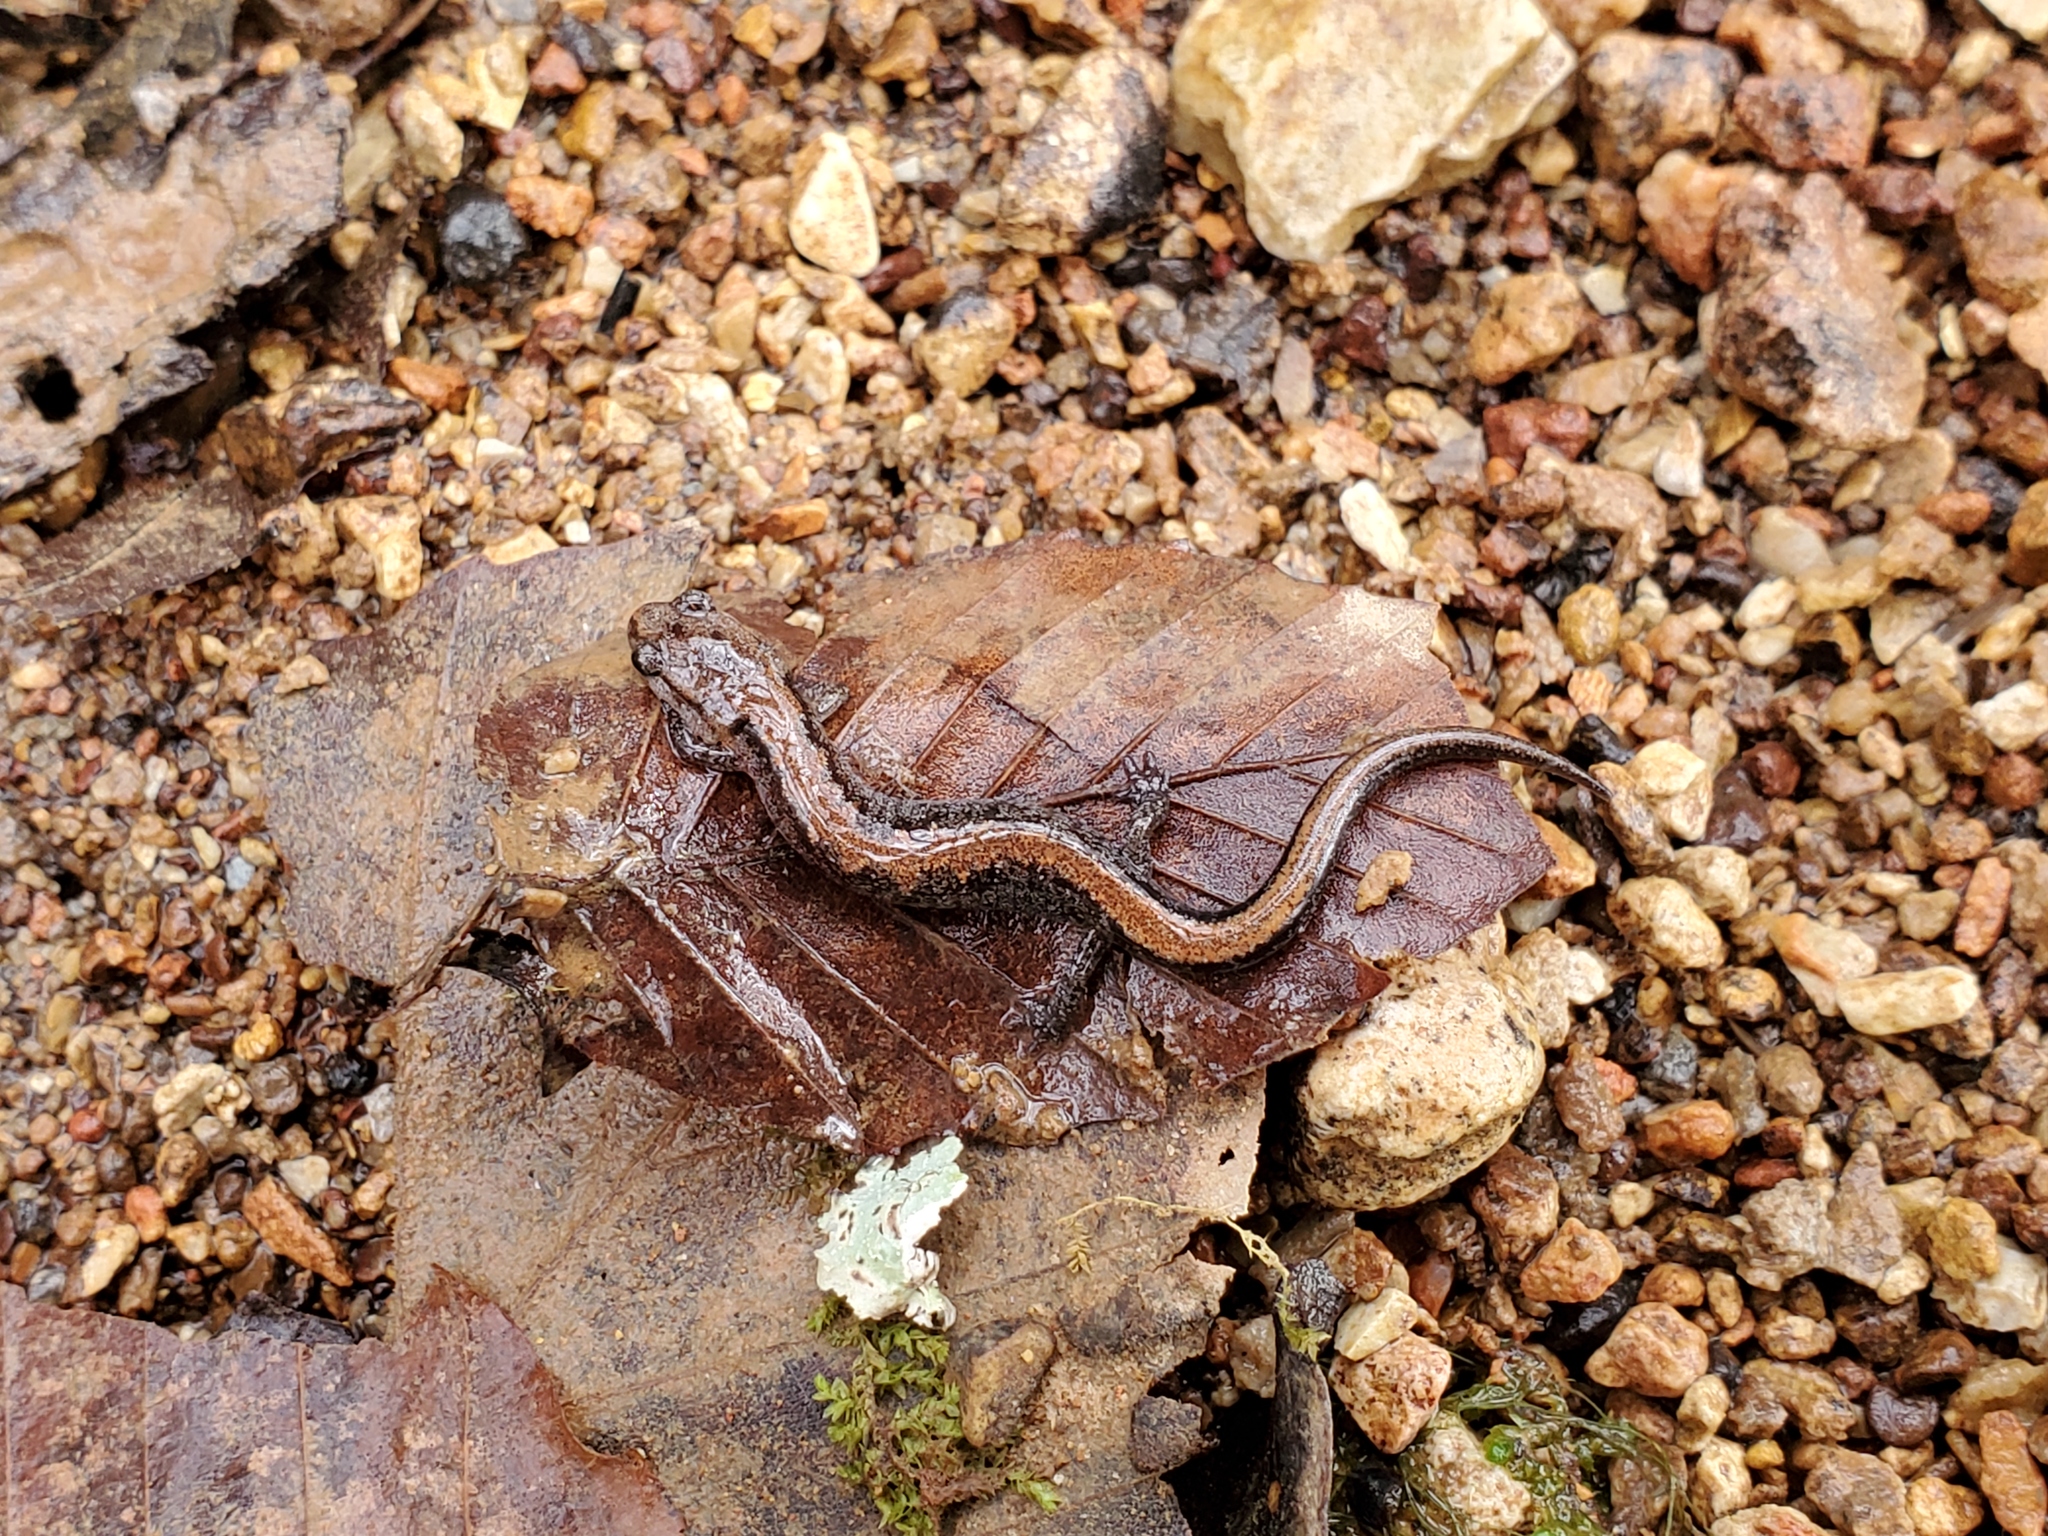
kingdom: Animalia
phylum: Chordata
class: Amphibia
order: Caudata
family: Plethodontidae
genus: Plethodon
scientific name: Plethodon dorsalis
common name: Northern zigzag salamander
